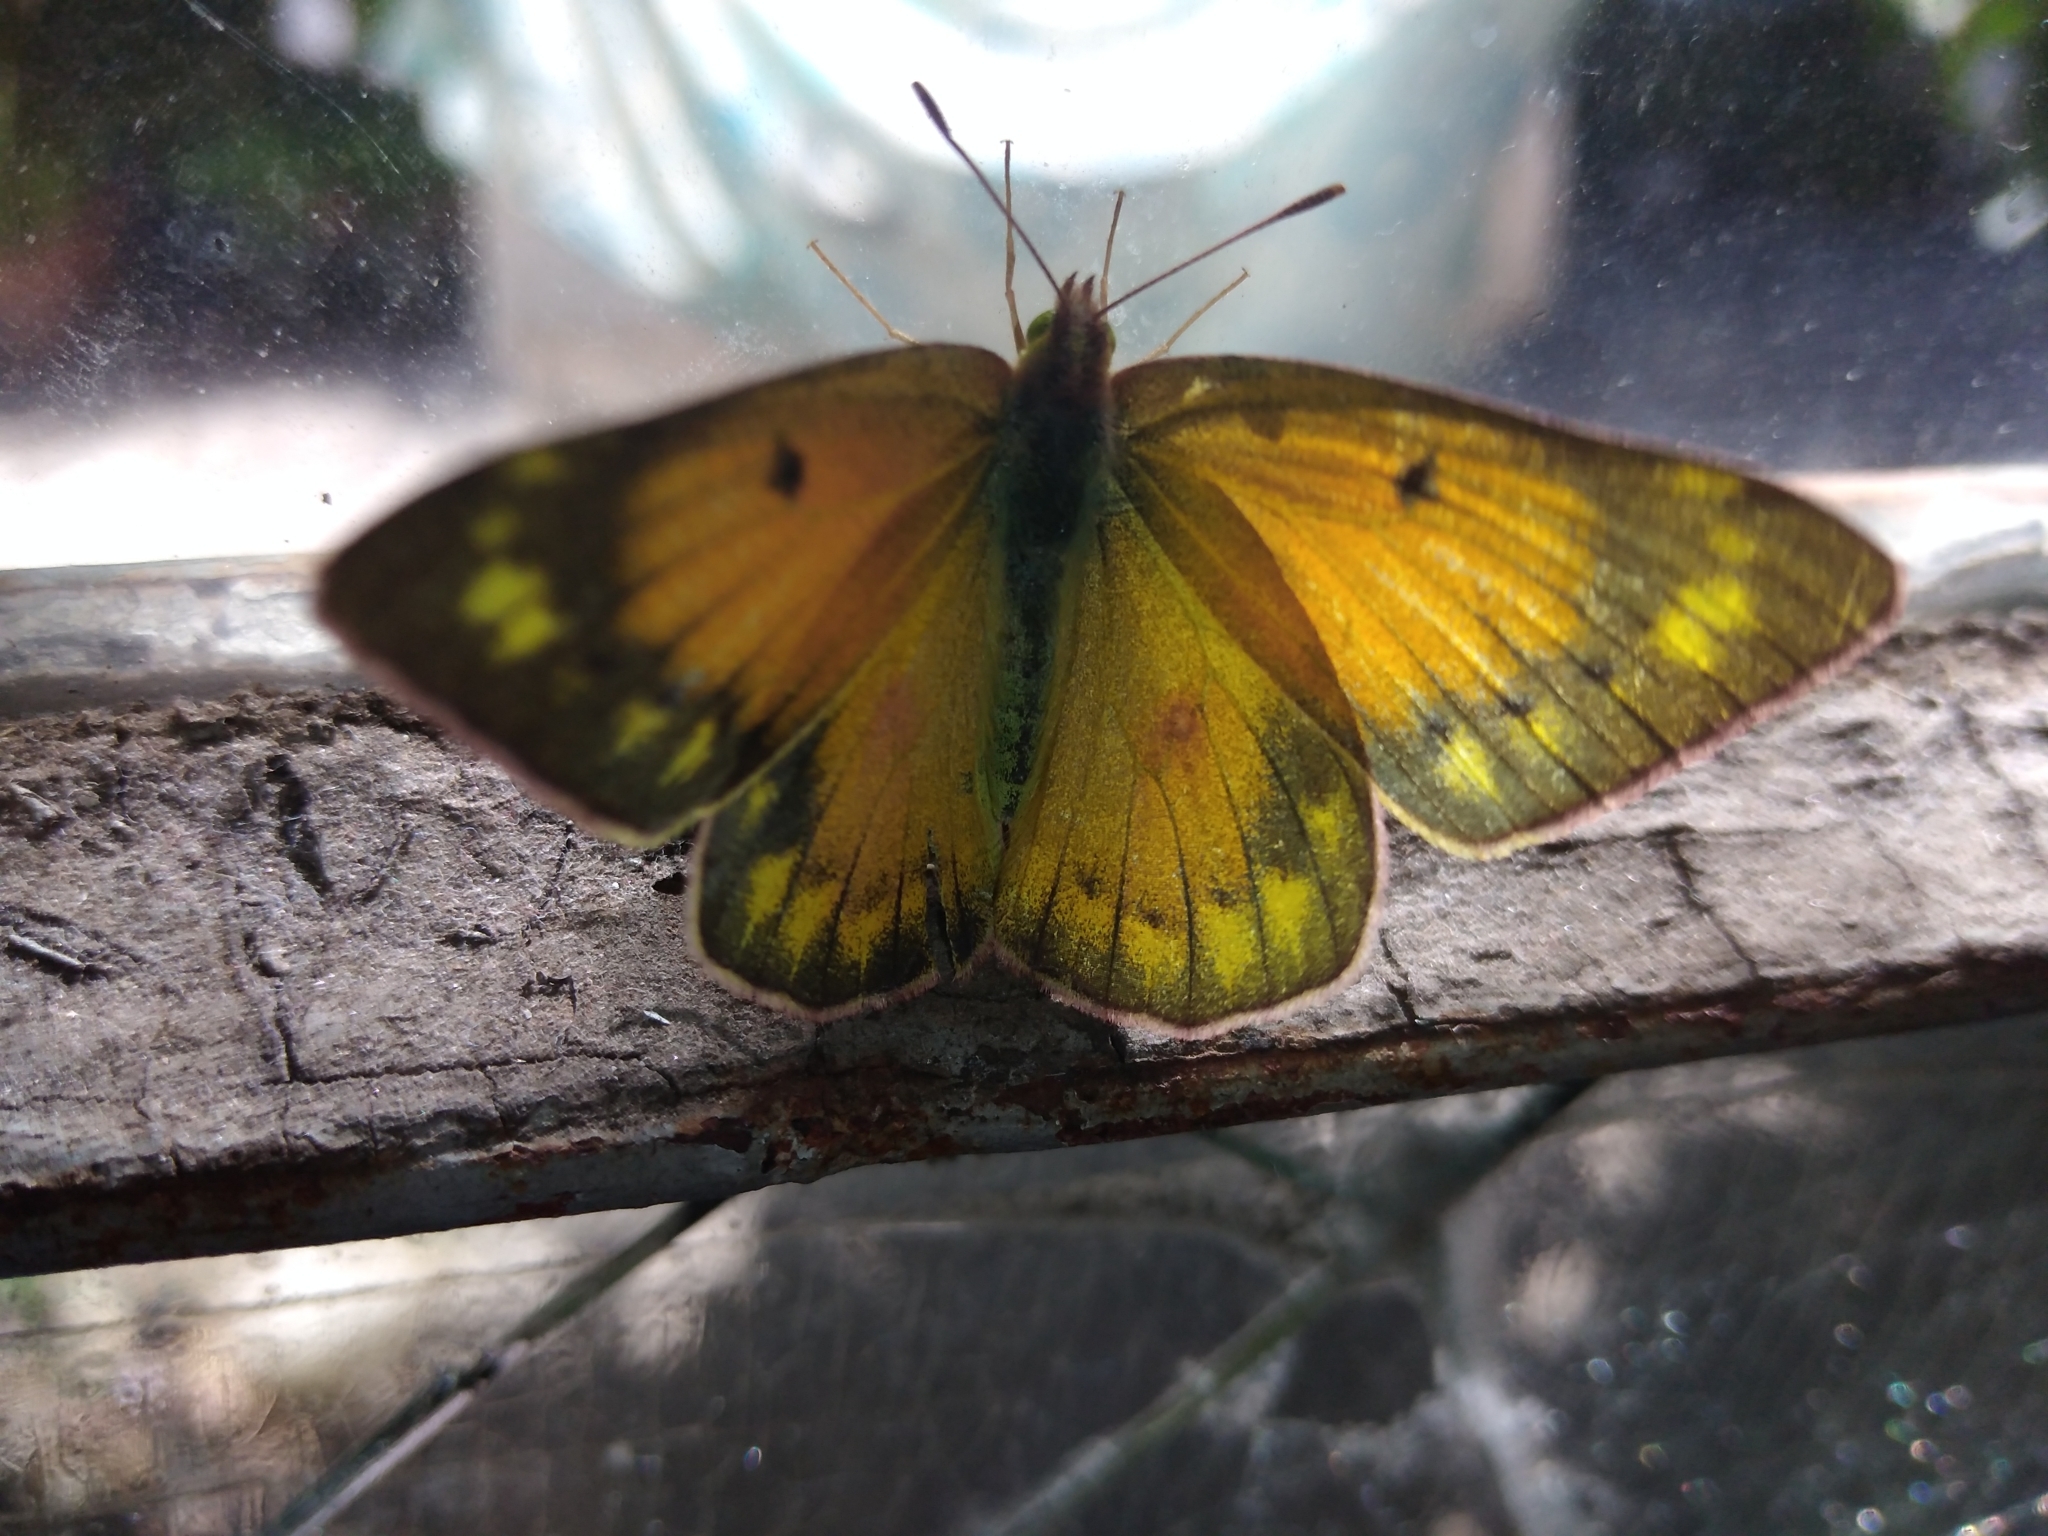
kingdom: Animalia
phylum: Arthropoda
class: Insecta
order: Lepidoptera
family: Pieridae
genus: Colias
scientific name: Colias lesbia
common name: Lesbia clouded yellow
